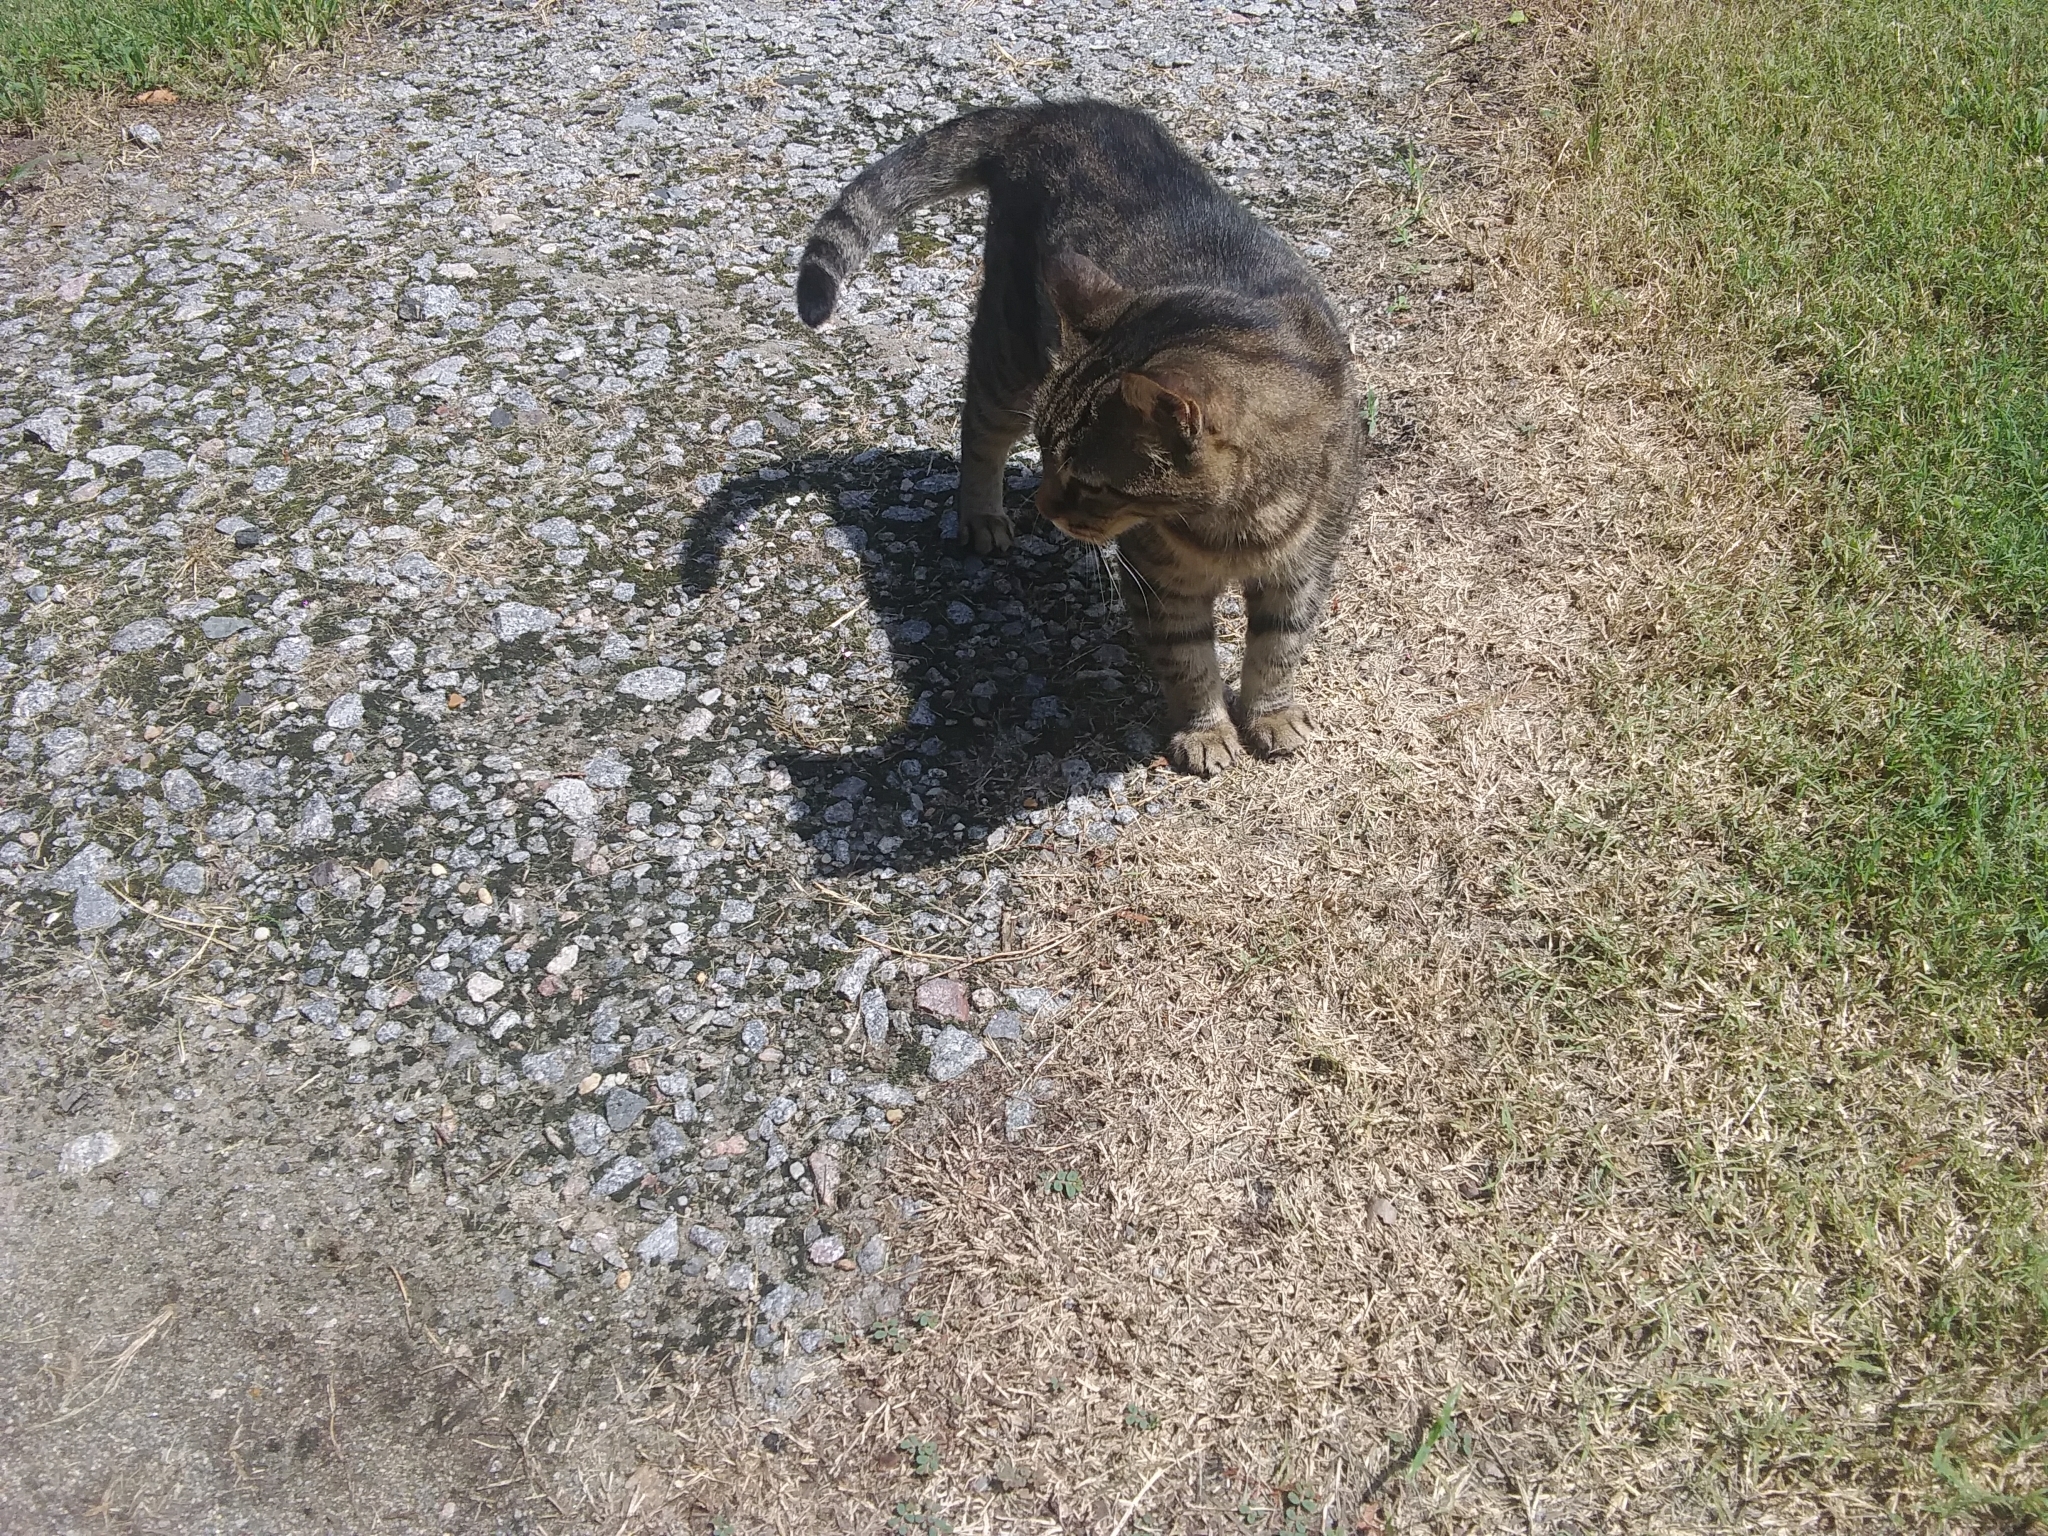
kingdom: Animalia
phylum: Chordata
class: Mammalia
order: Carnivora
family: Felidae
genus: Felis
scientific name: Felis catus
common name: Domestic cat
